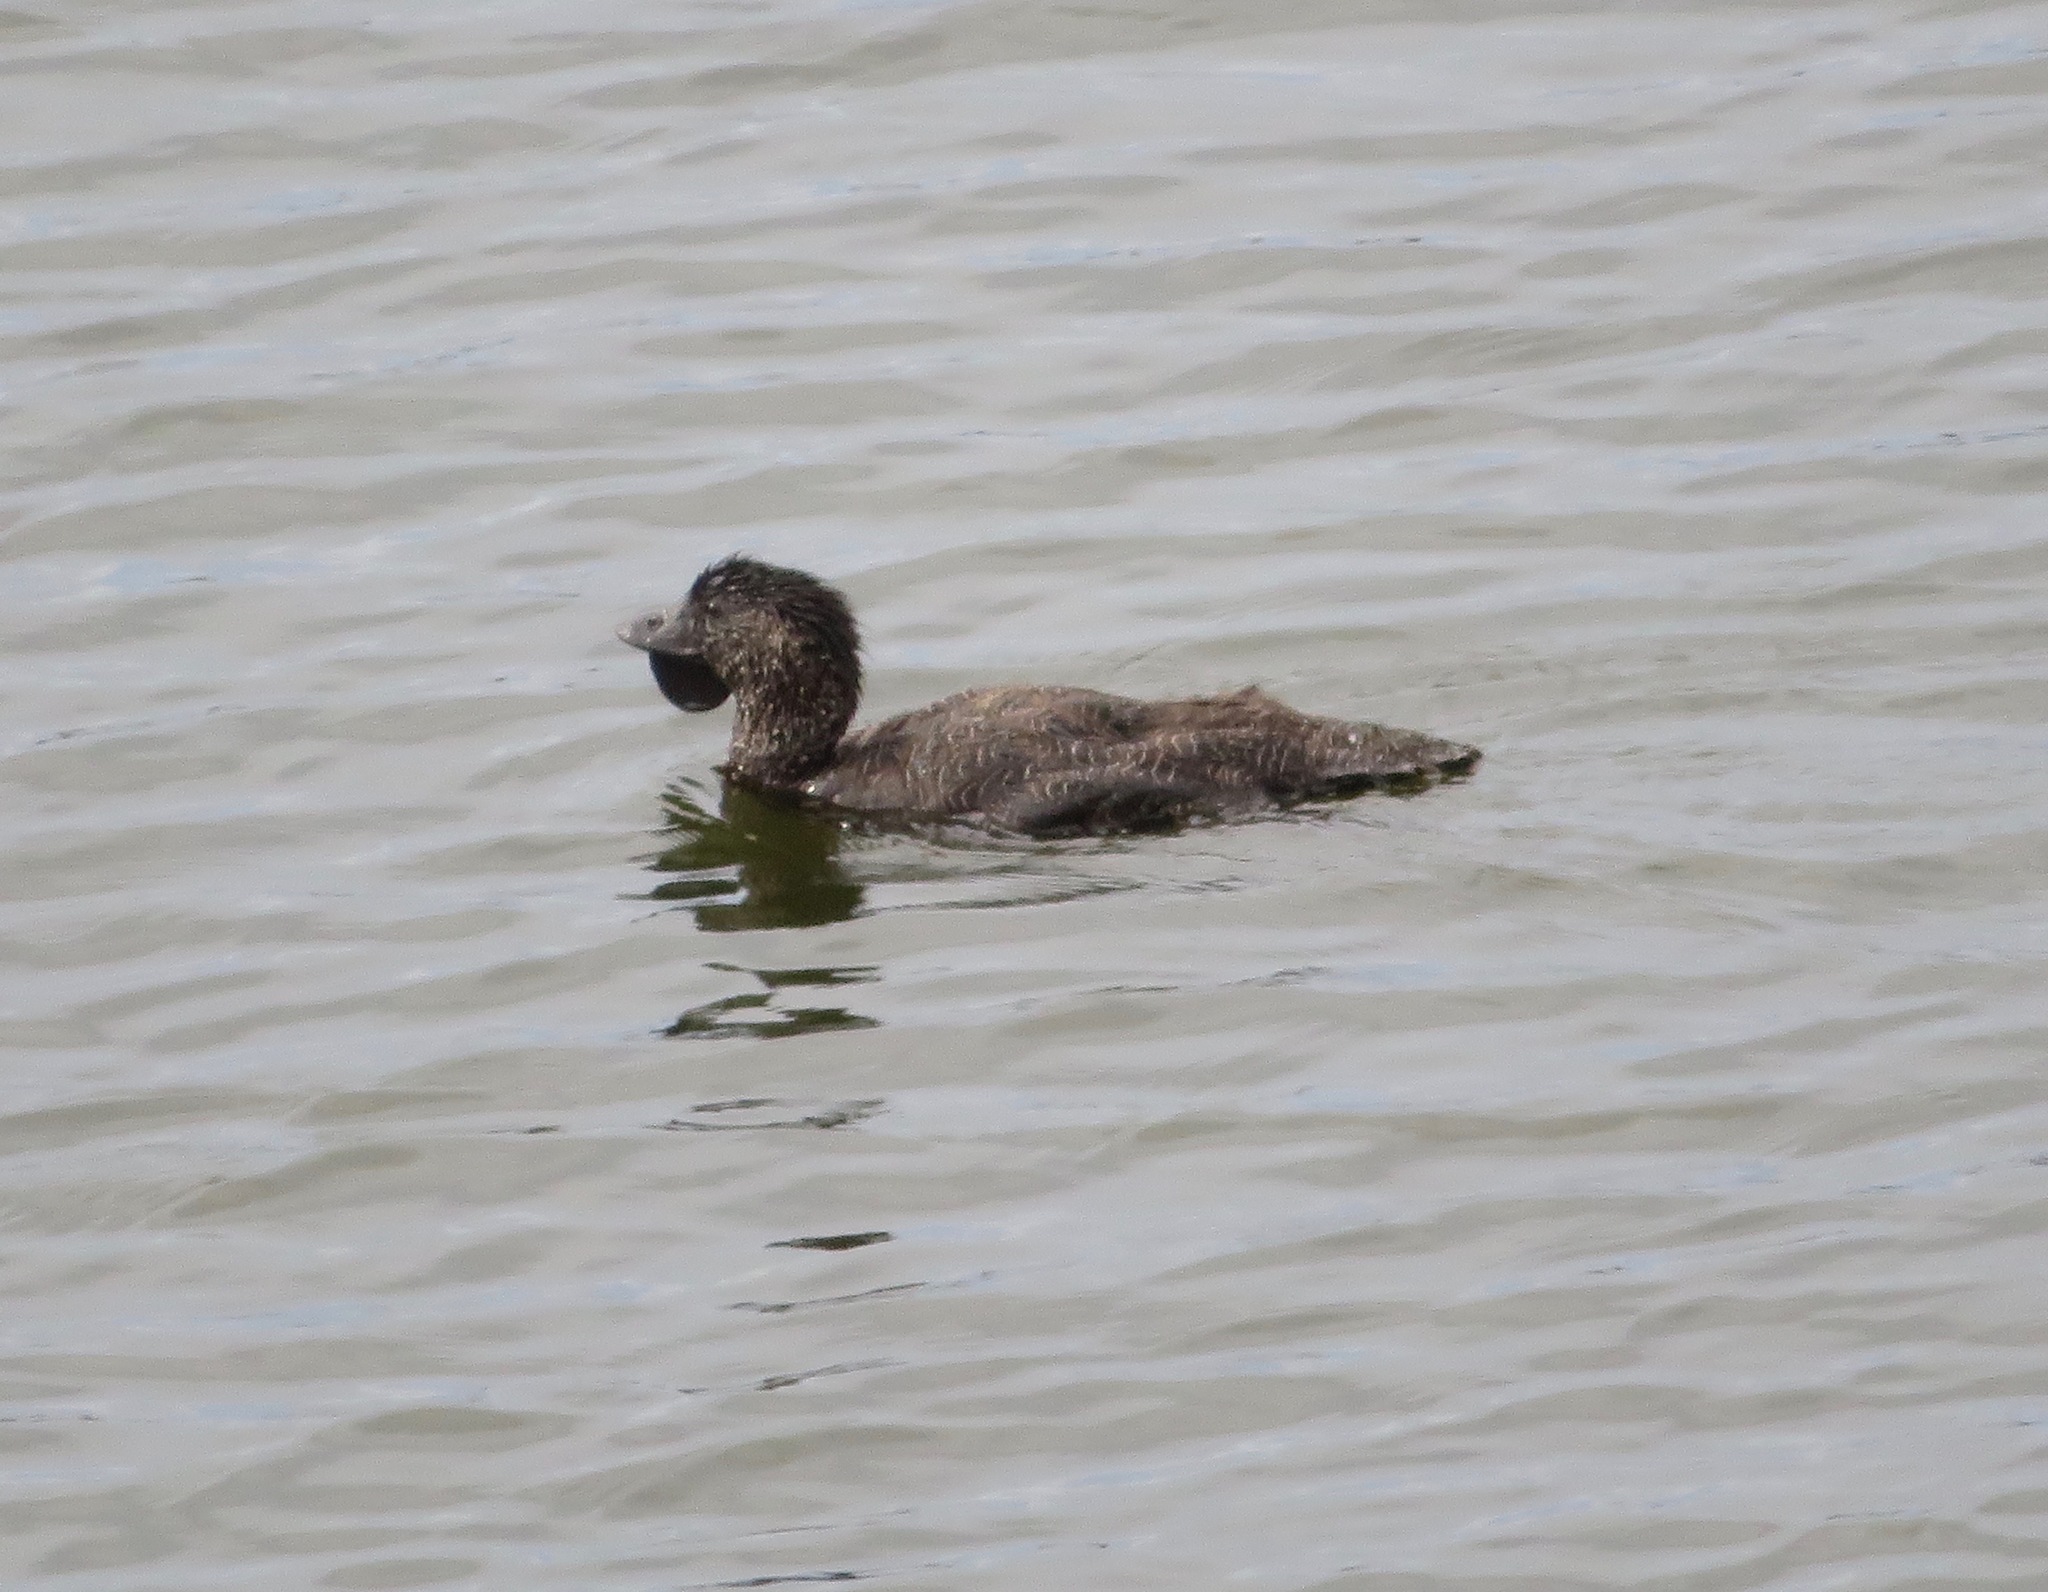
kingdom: Animalia
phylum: Chordata
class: Aves
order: Anseriformes
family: Anatidae
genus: Biziura
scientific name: Biziura lobata
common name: Musk duck
